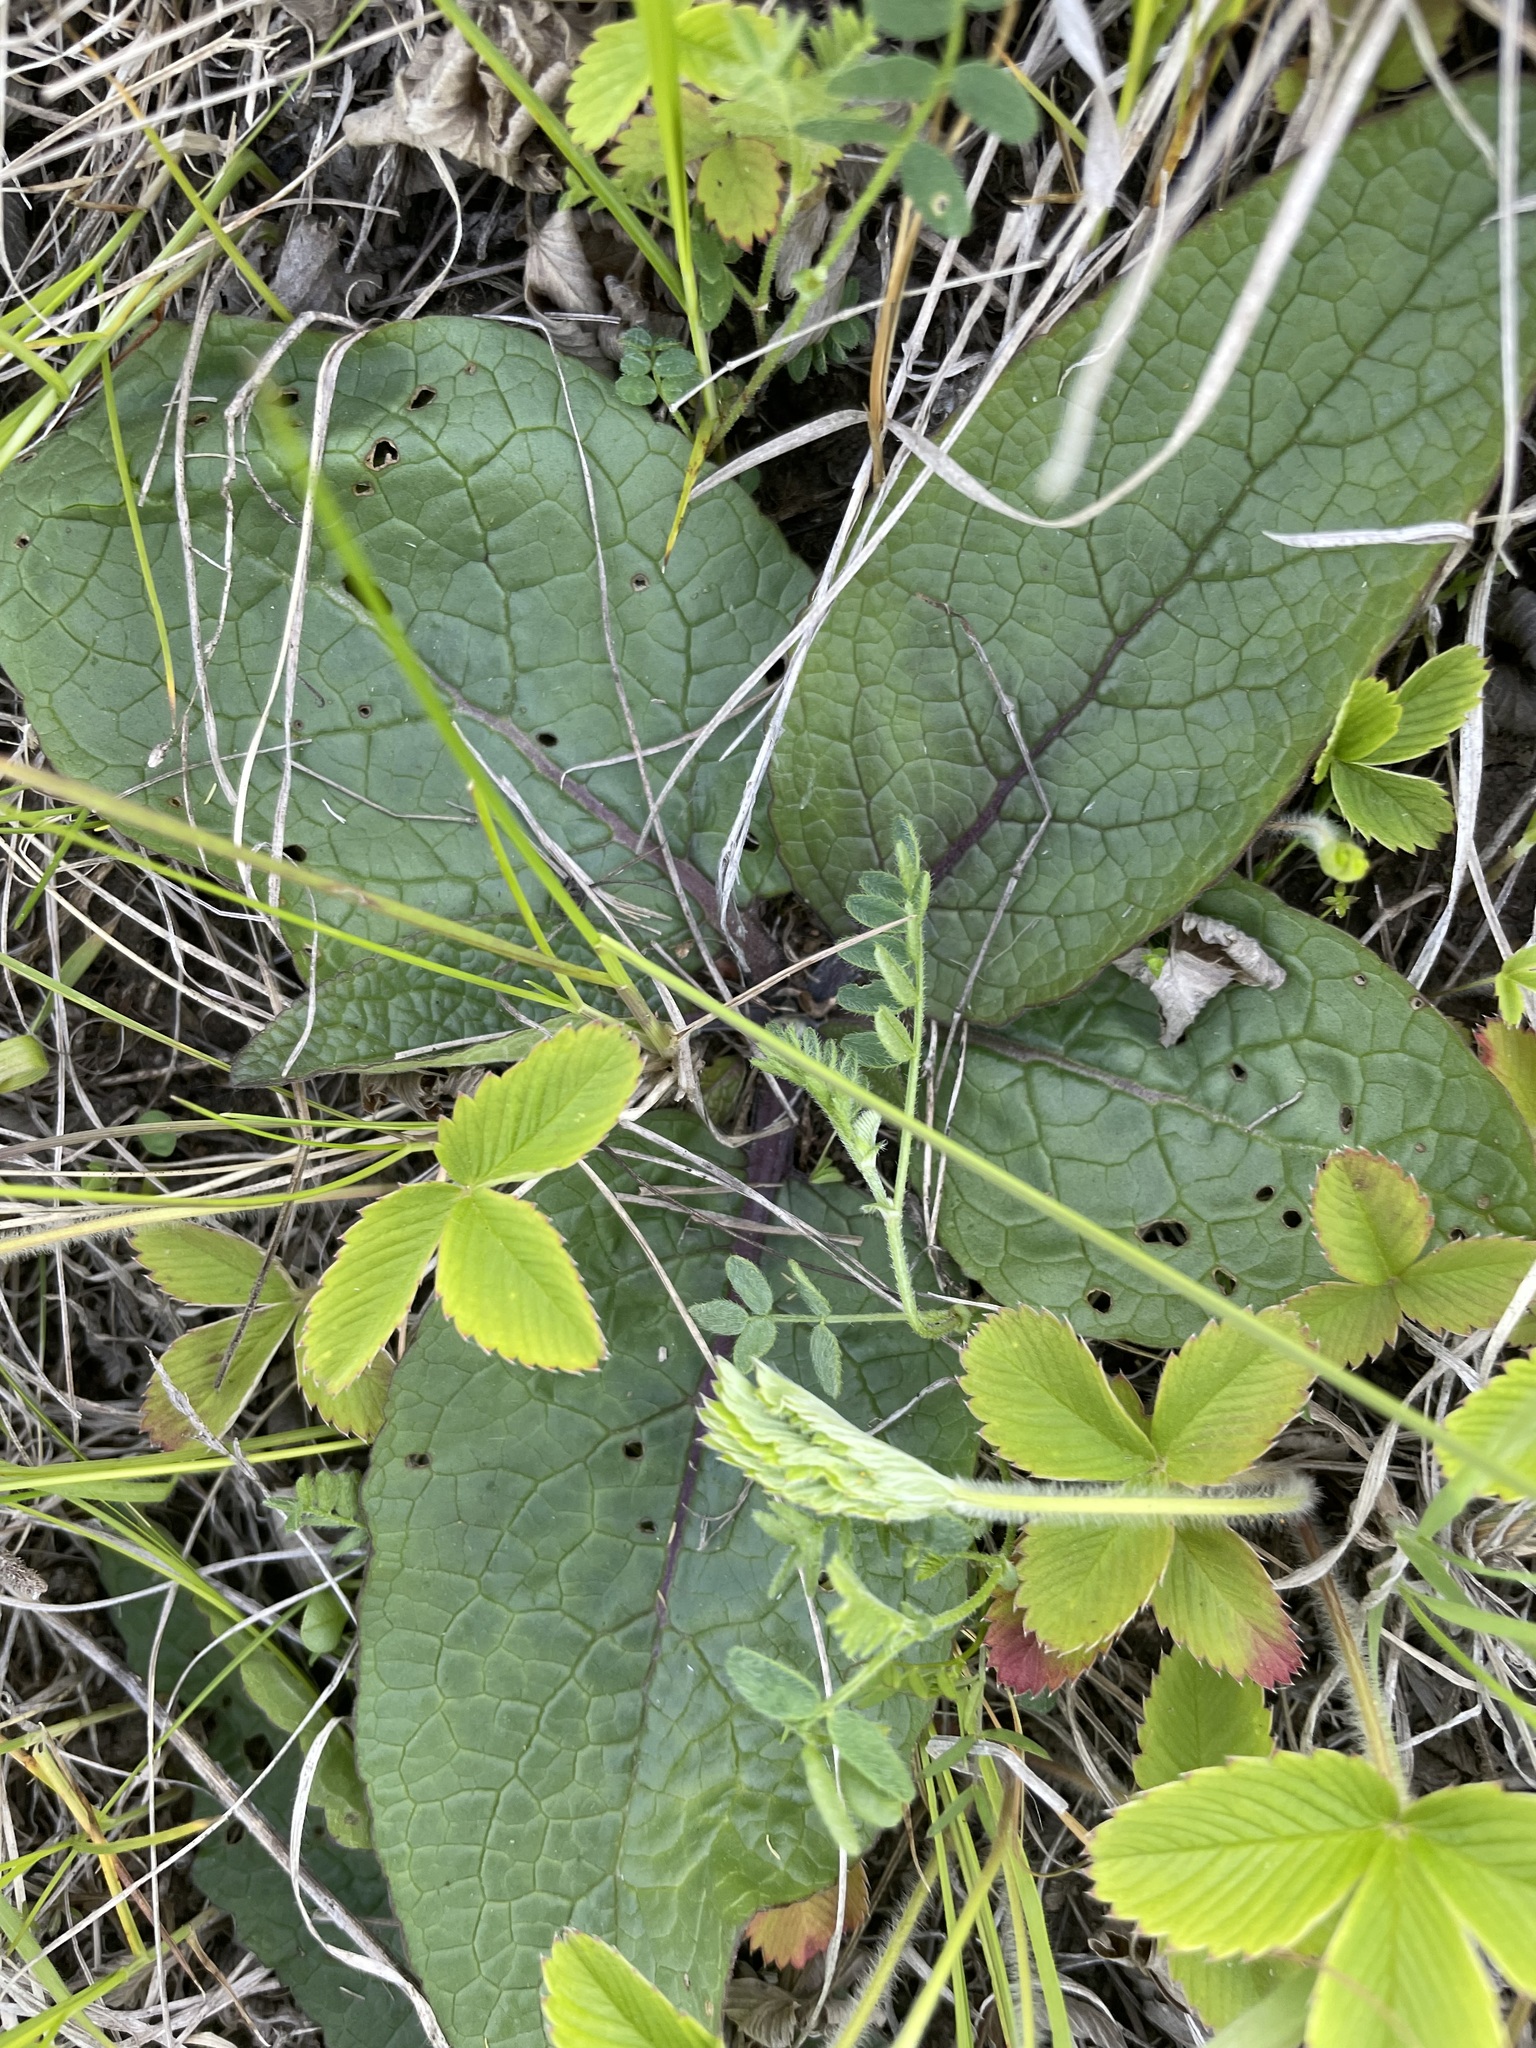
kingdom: Plantae
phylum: Tracheophyta
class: Magnoliopsida
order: Lamiales
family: Scrophulariaceae
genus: Verbascum
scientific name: Verbascum phoeniceum
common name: Purple mullein
